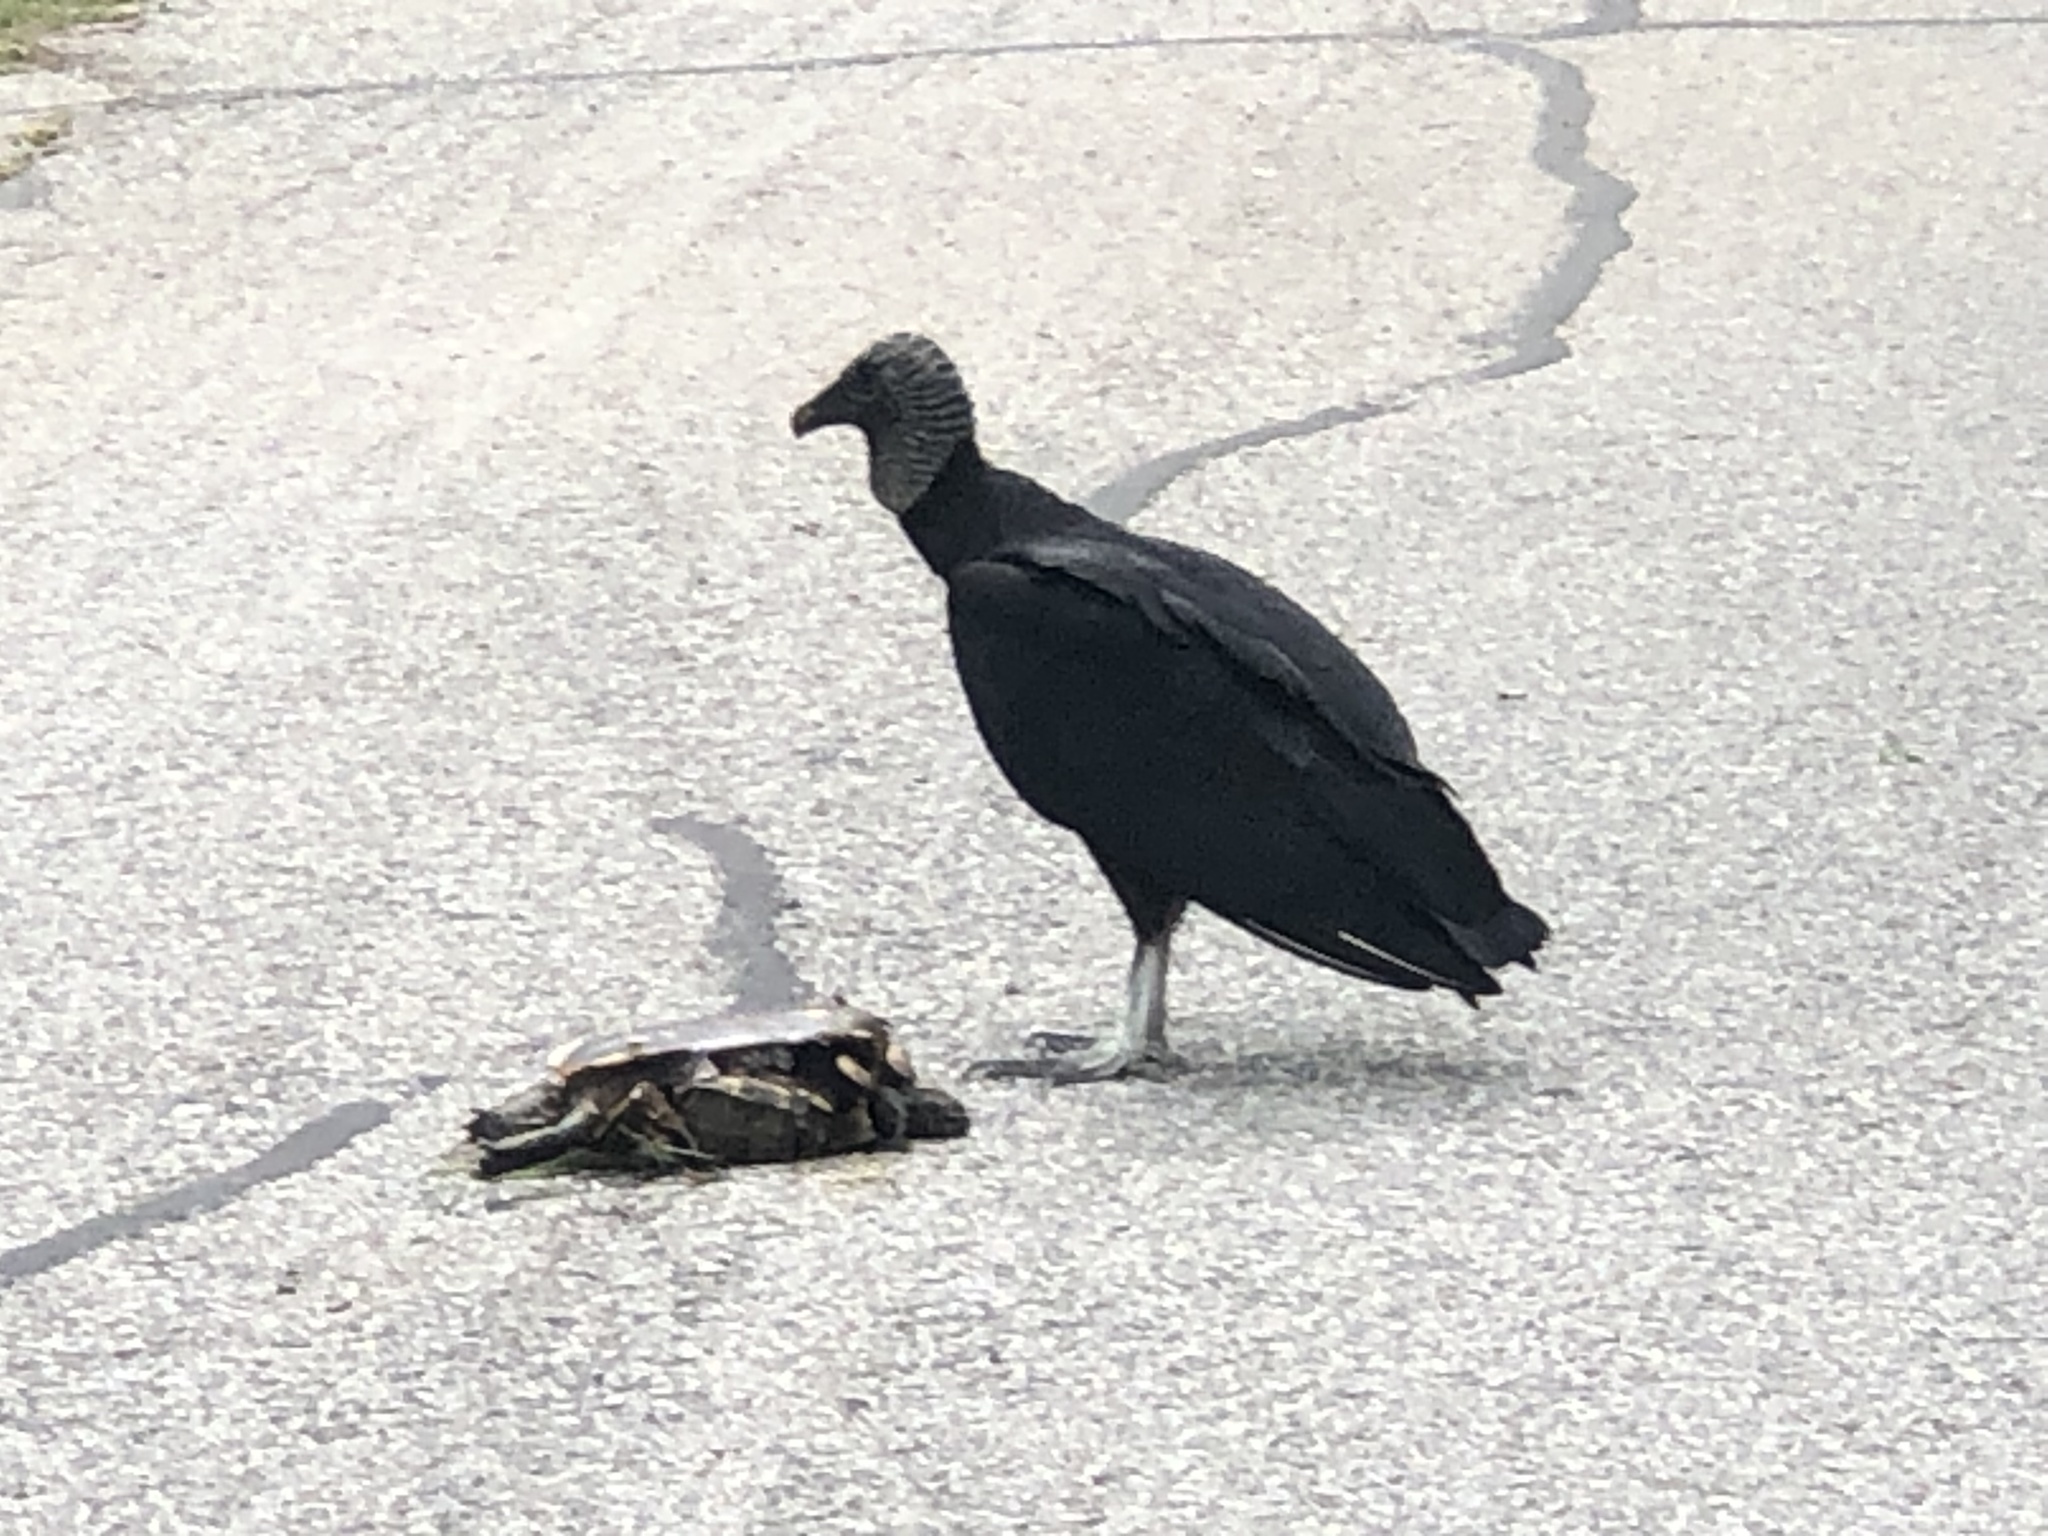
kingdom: Animalia
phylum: Chordata
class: Aves
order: Accipitriformes
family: Cathartidae
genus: Coragyps
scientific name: Coragyps atratus
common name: Black vulture
